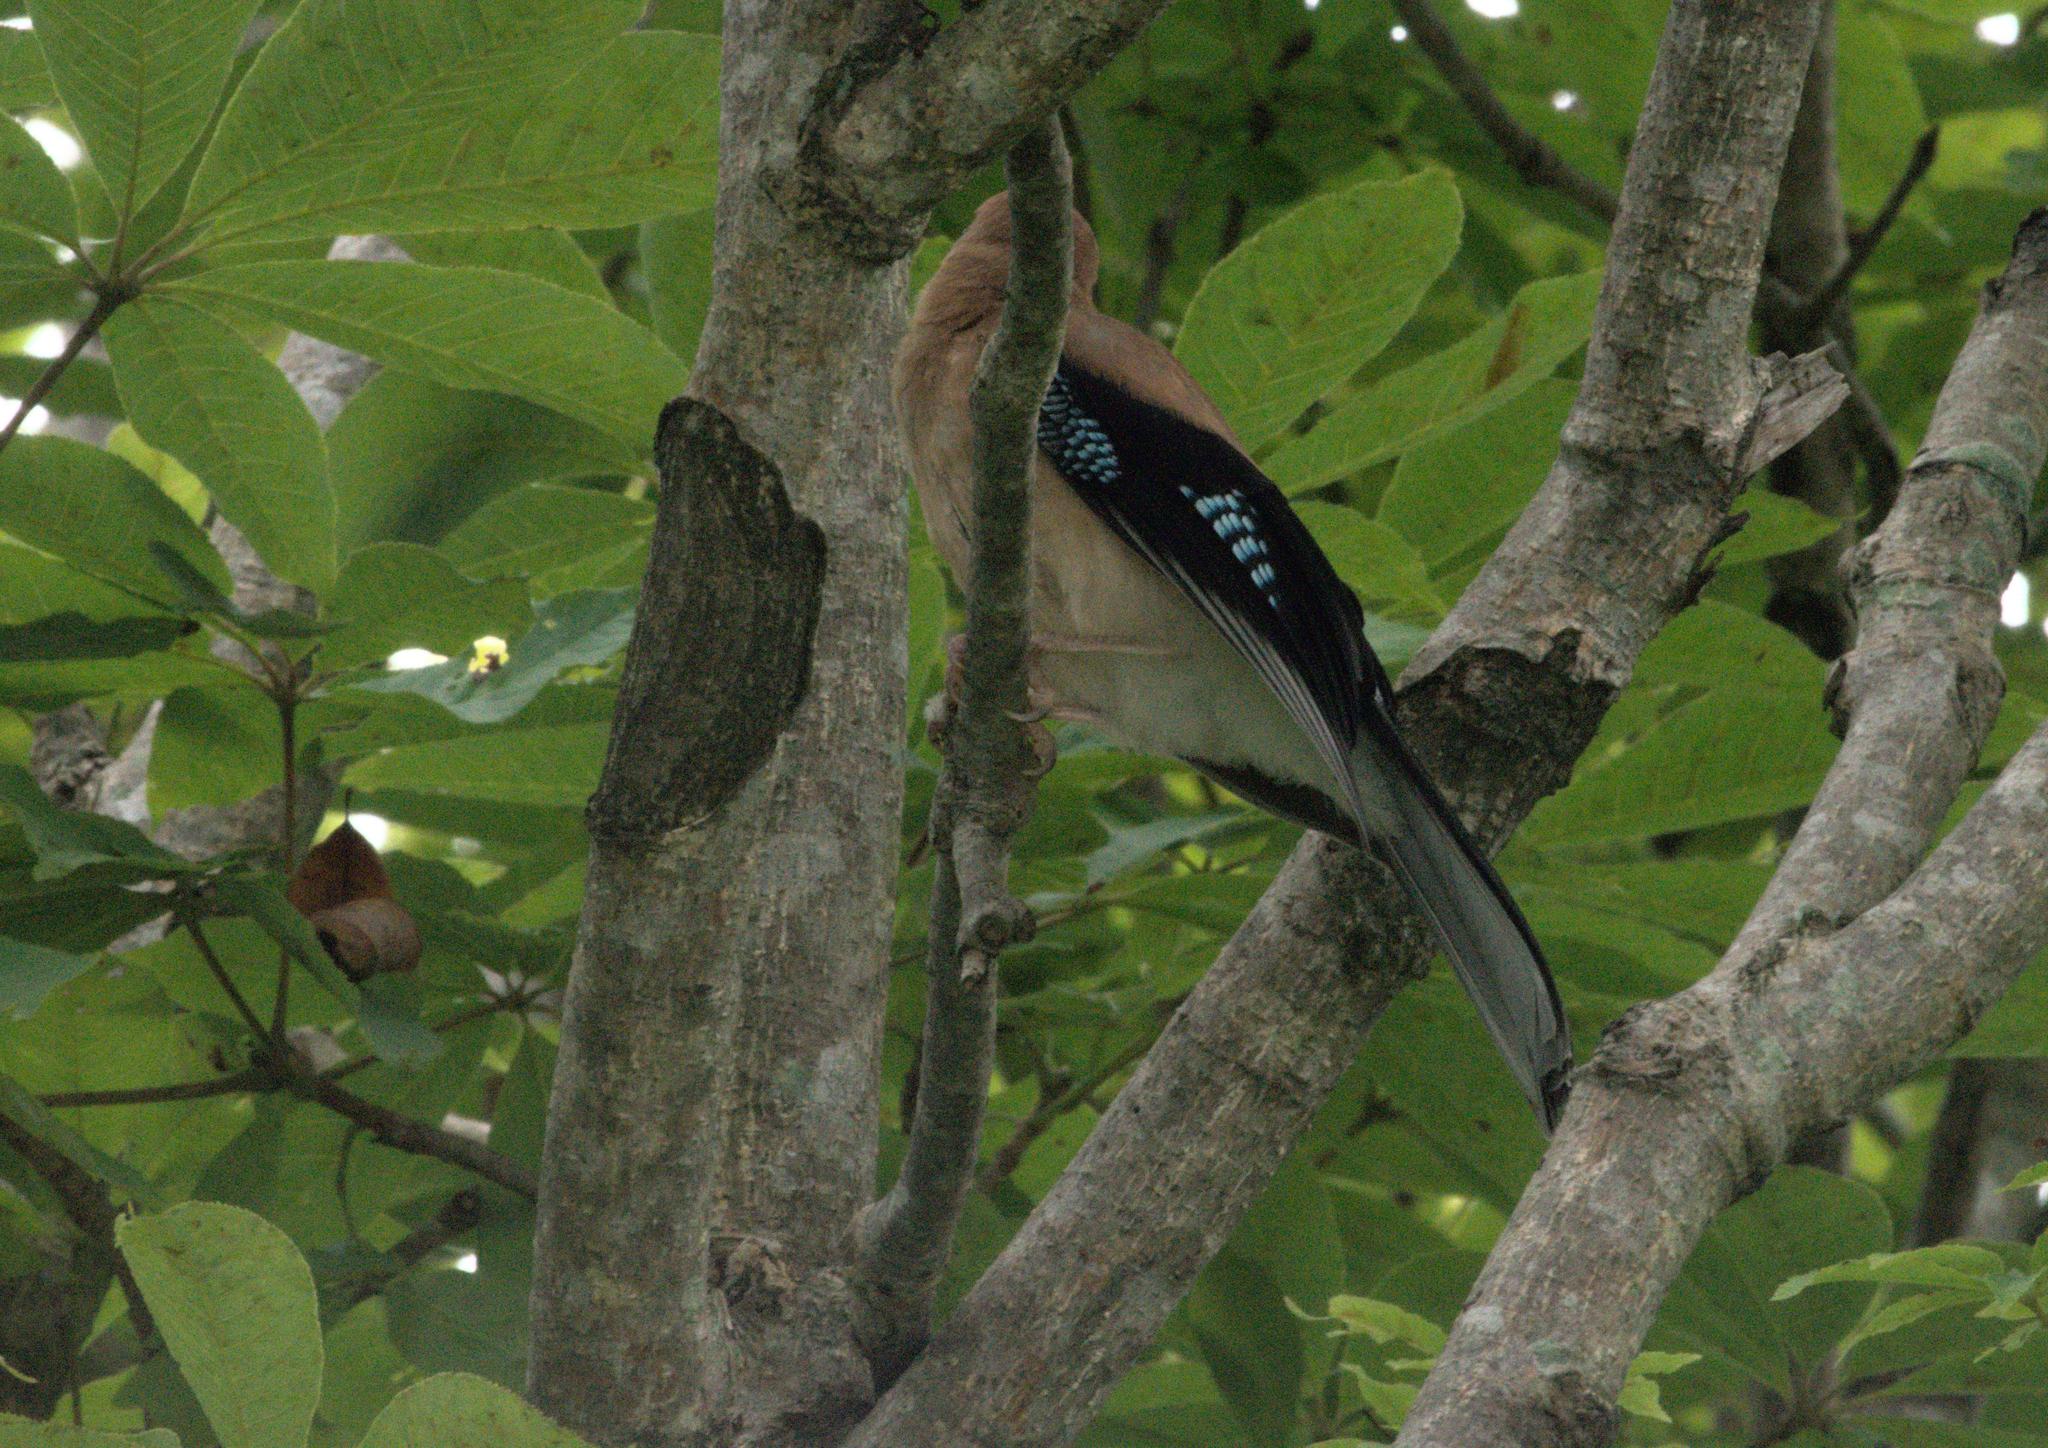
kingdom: Animalia
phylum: Chordata
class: Aves
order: Passeriformes
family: Corvidae
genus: Garrulus
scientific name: Garrulus glandarius
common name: Eurasian jay
